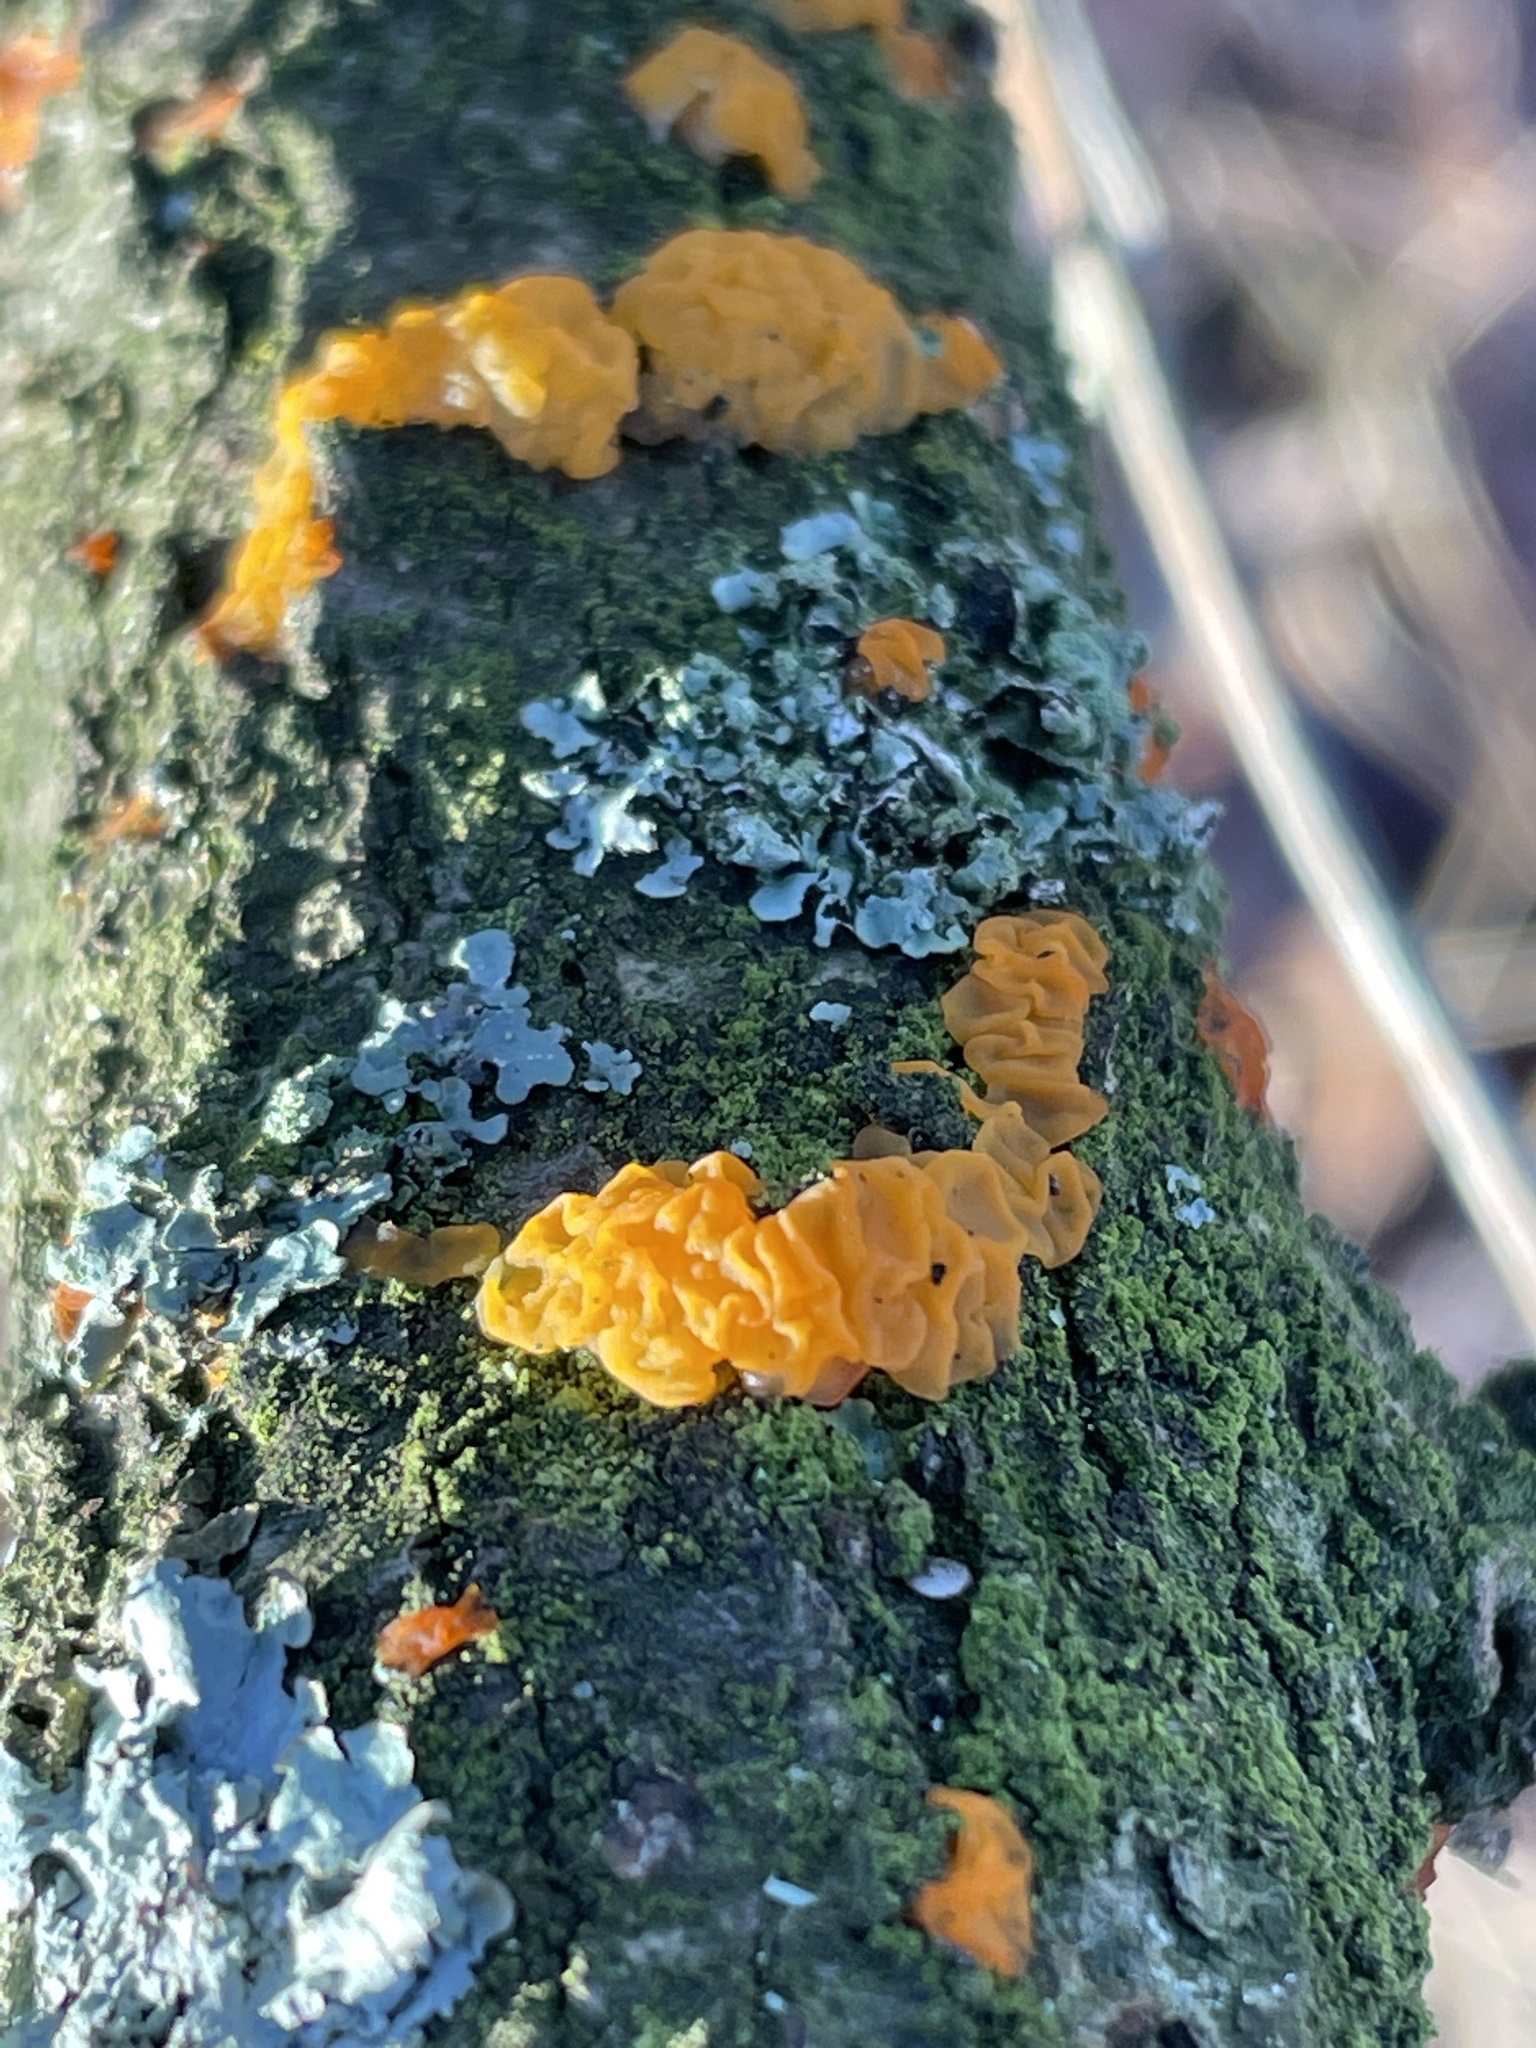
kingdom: Fungi
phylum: Basidiomycota
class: Tremellomycetes
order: Tremellales
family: Tremellaceae
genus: Tremella
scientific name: Tremella mesenterica
